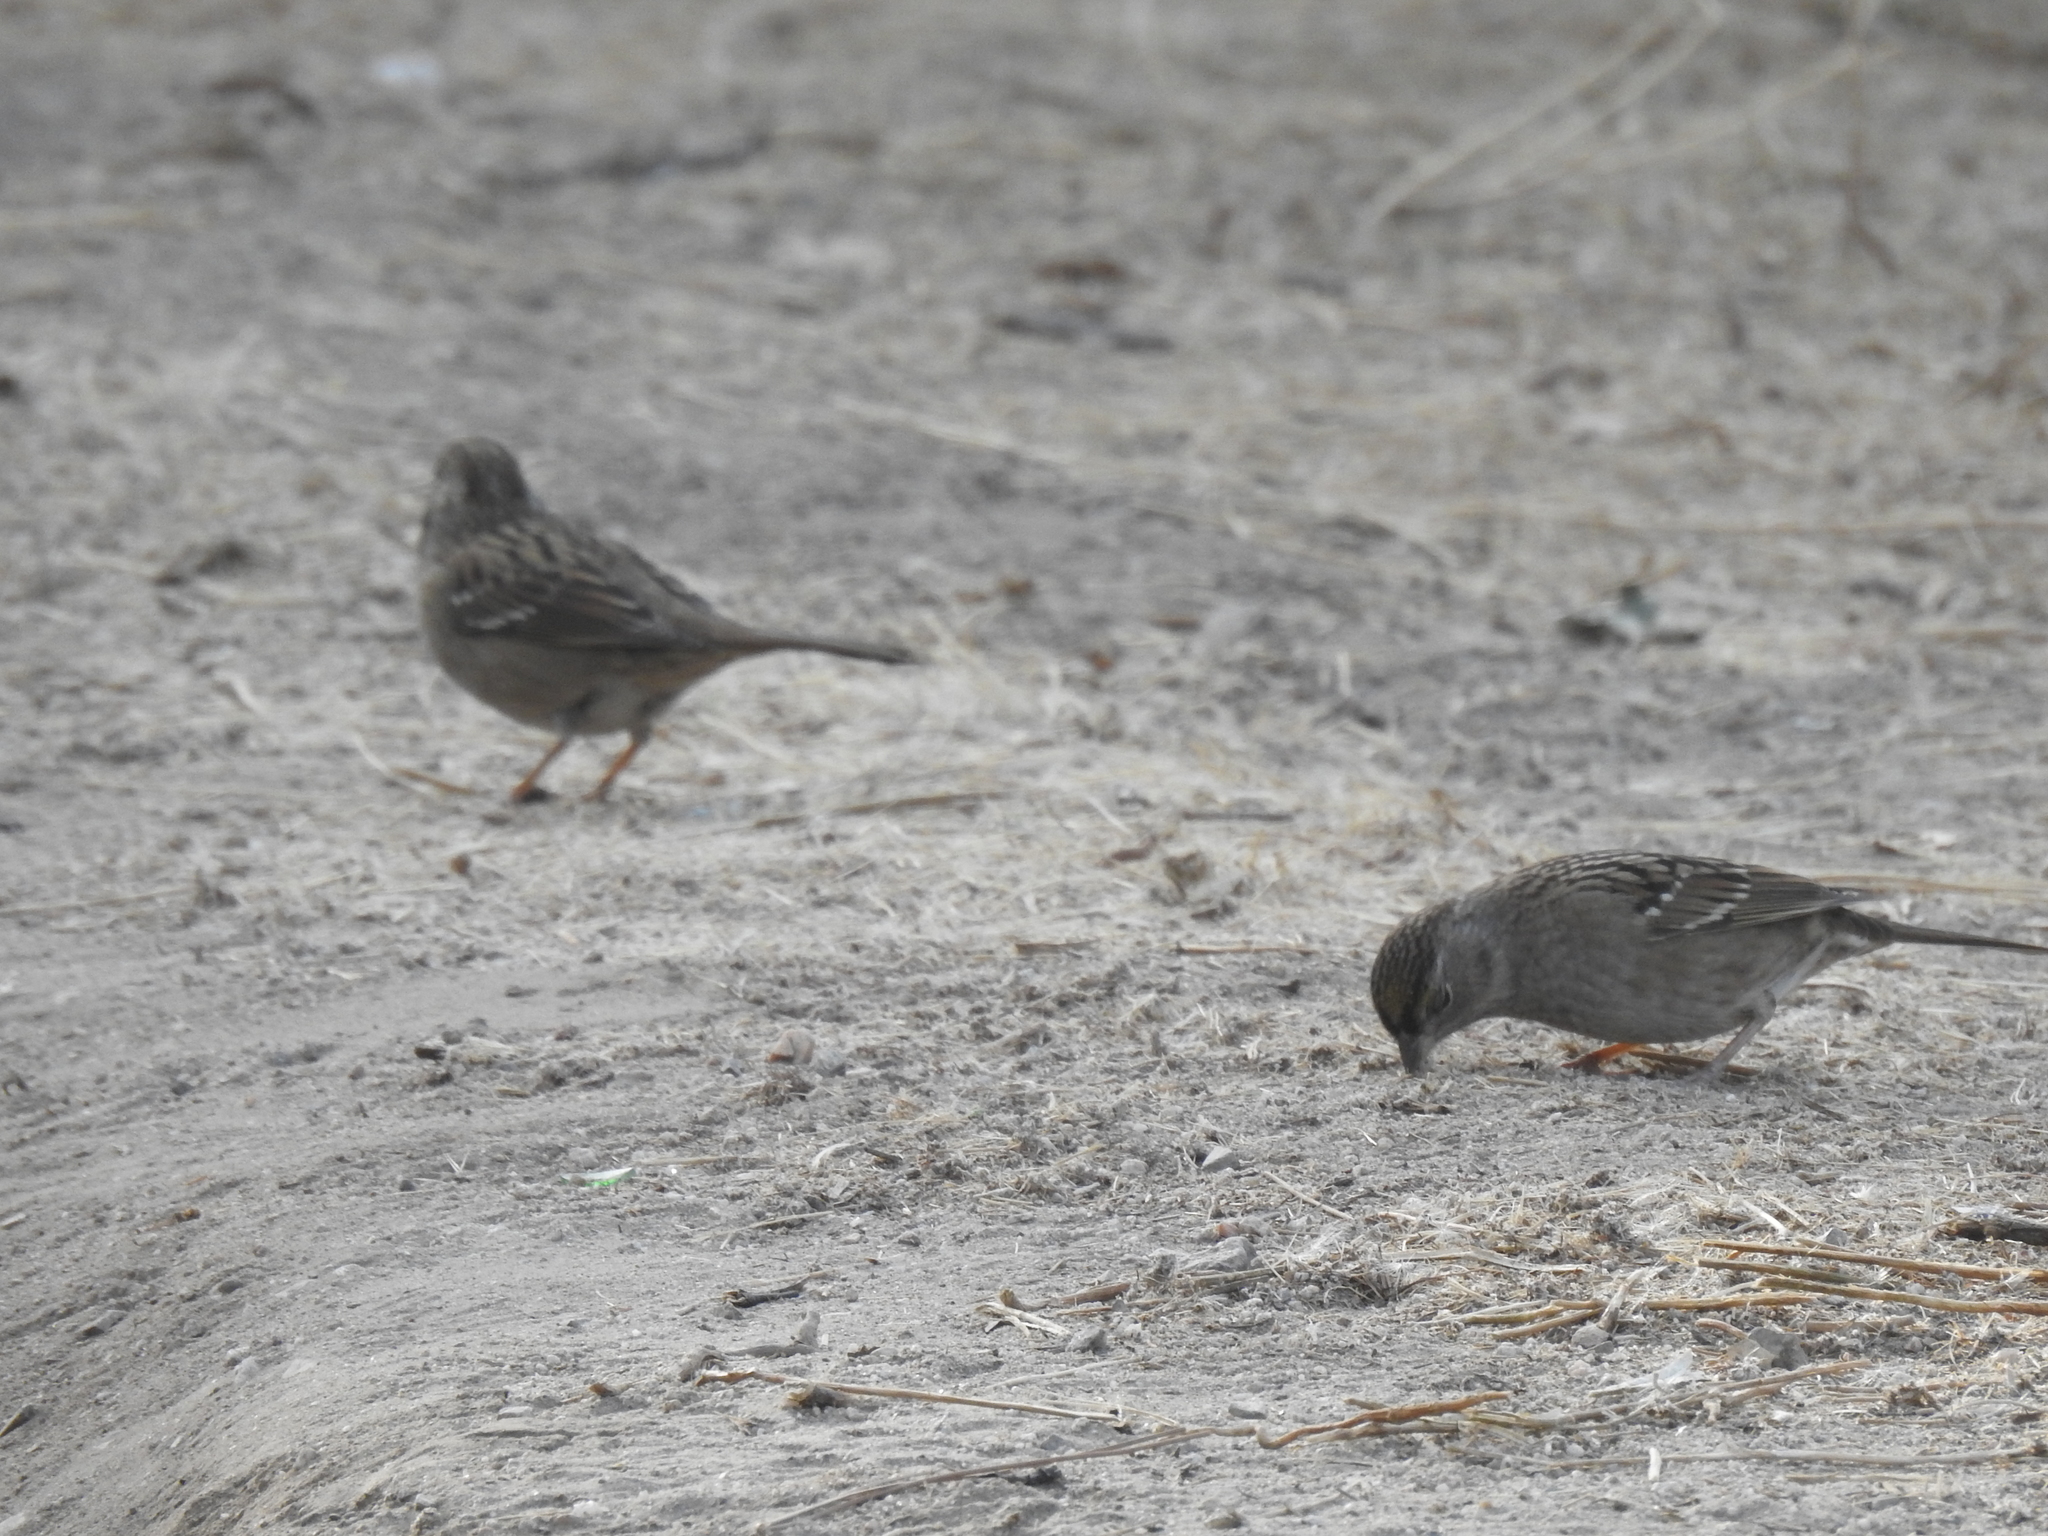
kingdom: Animalia
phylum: Chordata
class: Aves
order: Passeriformes
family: Passerellidae
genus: Zonotrichia
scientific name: Zonotrichia atricapilla
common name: Golden-crowned sparrow
